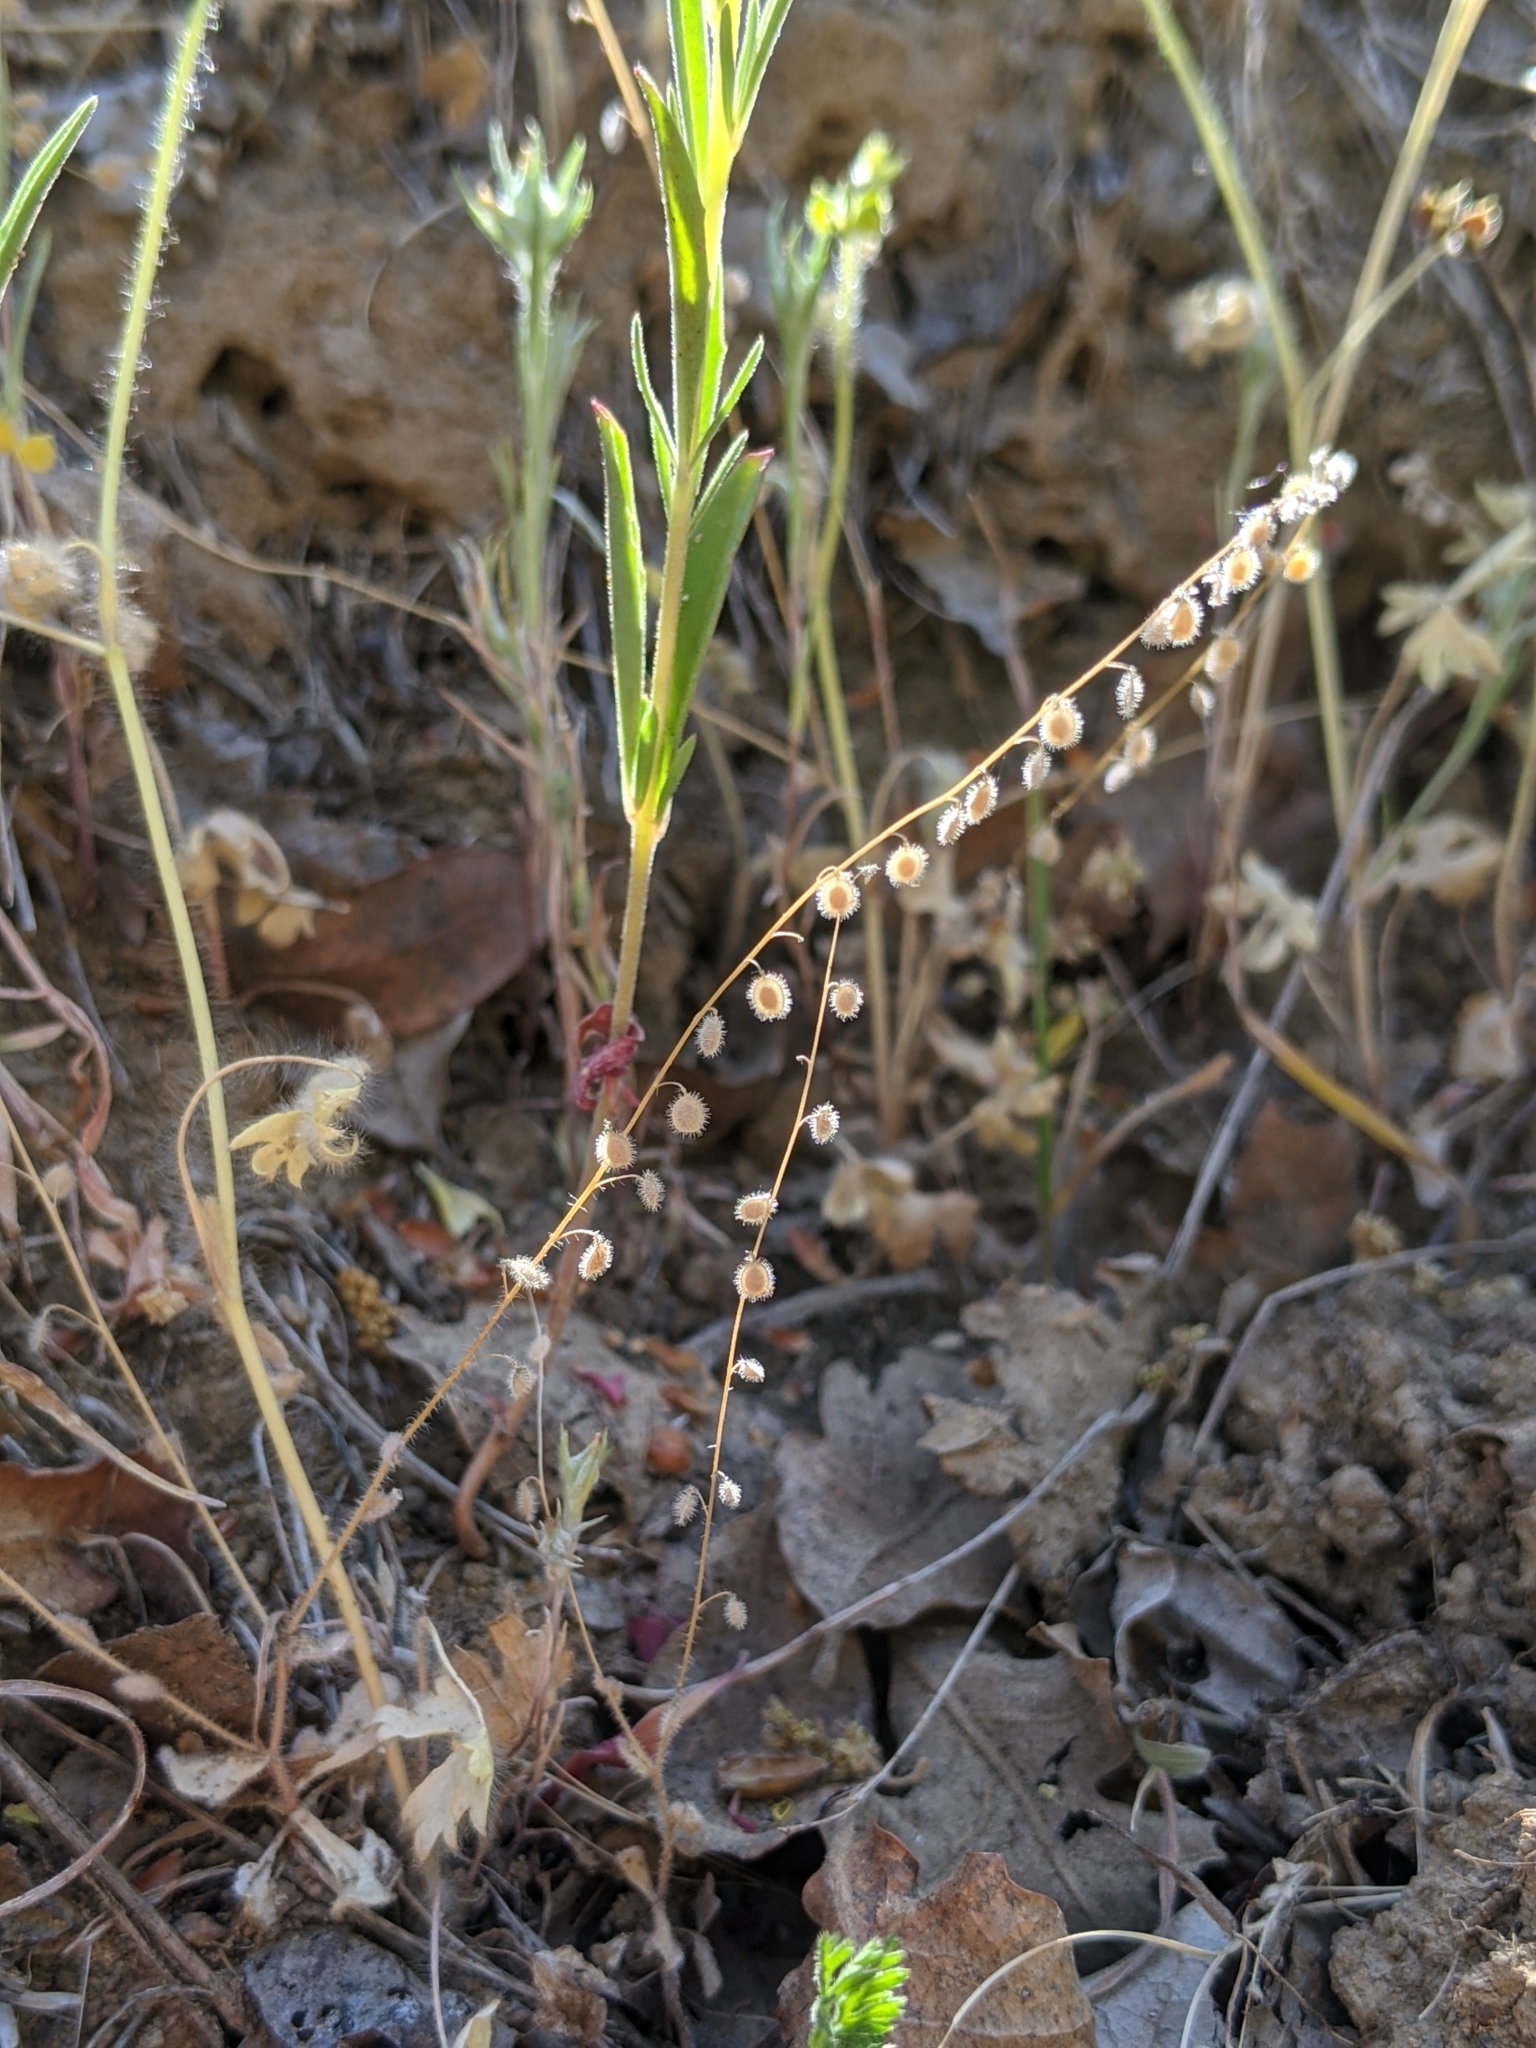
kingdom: Plantae
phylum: Tracheophyta
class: Magnoliopsida
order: Brassicales
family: Brassicaceae
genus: Athysanus
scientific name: Athysanus pusillus
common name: Common sandweed
